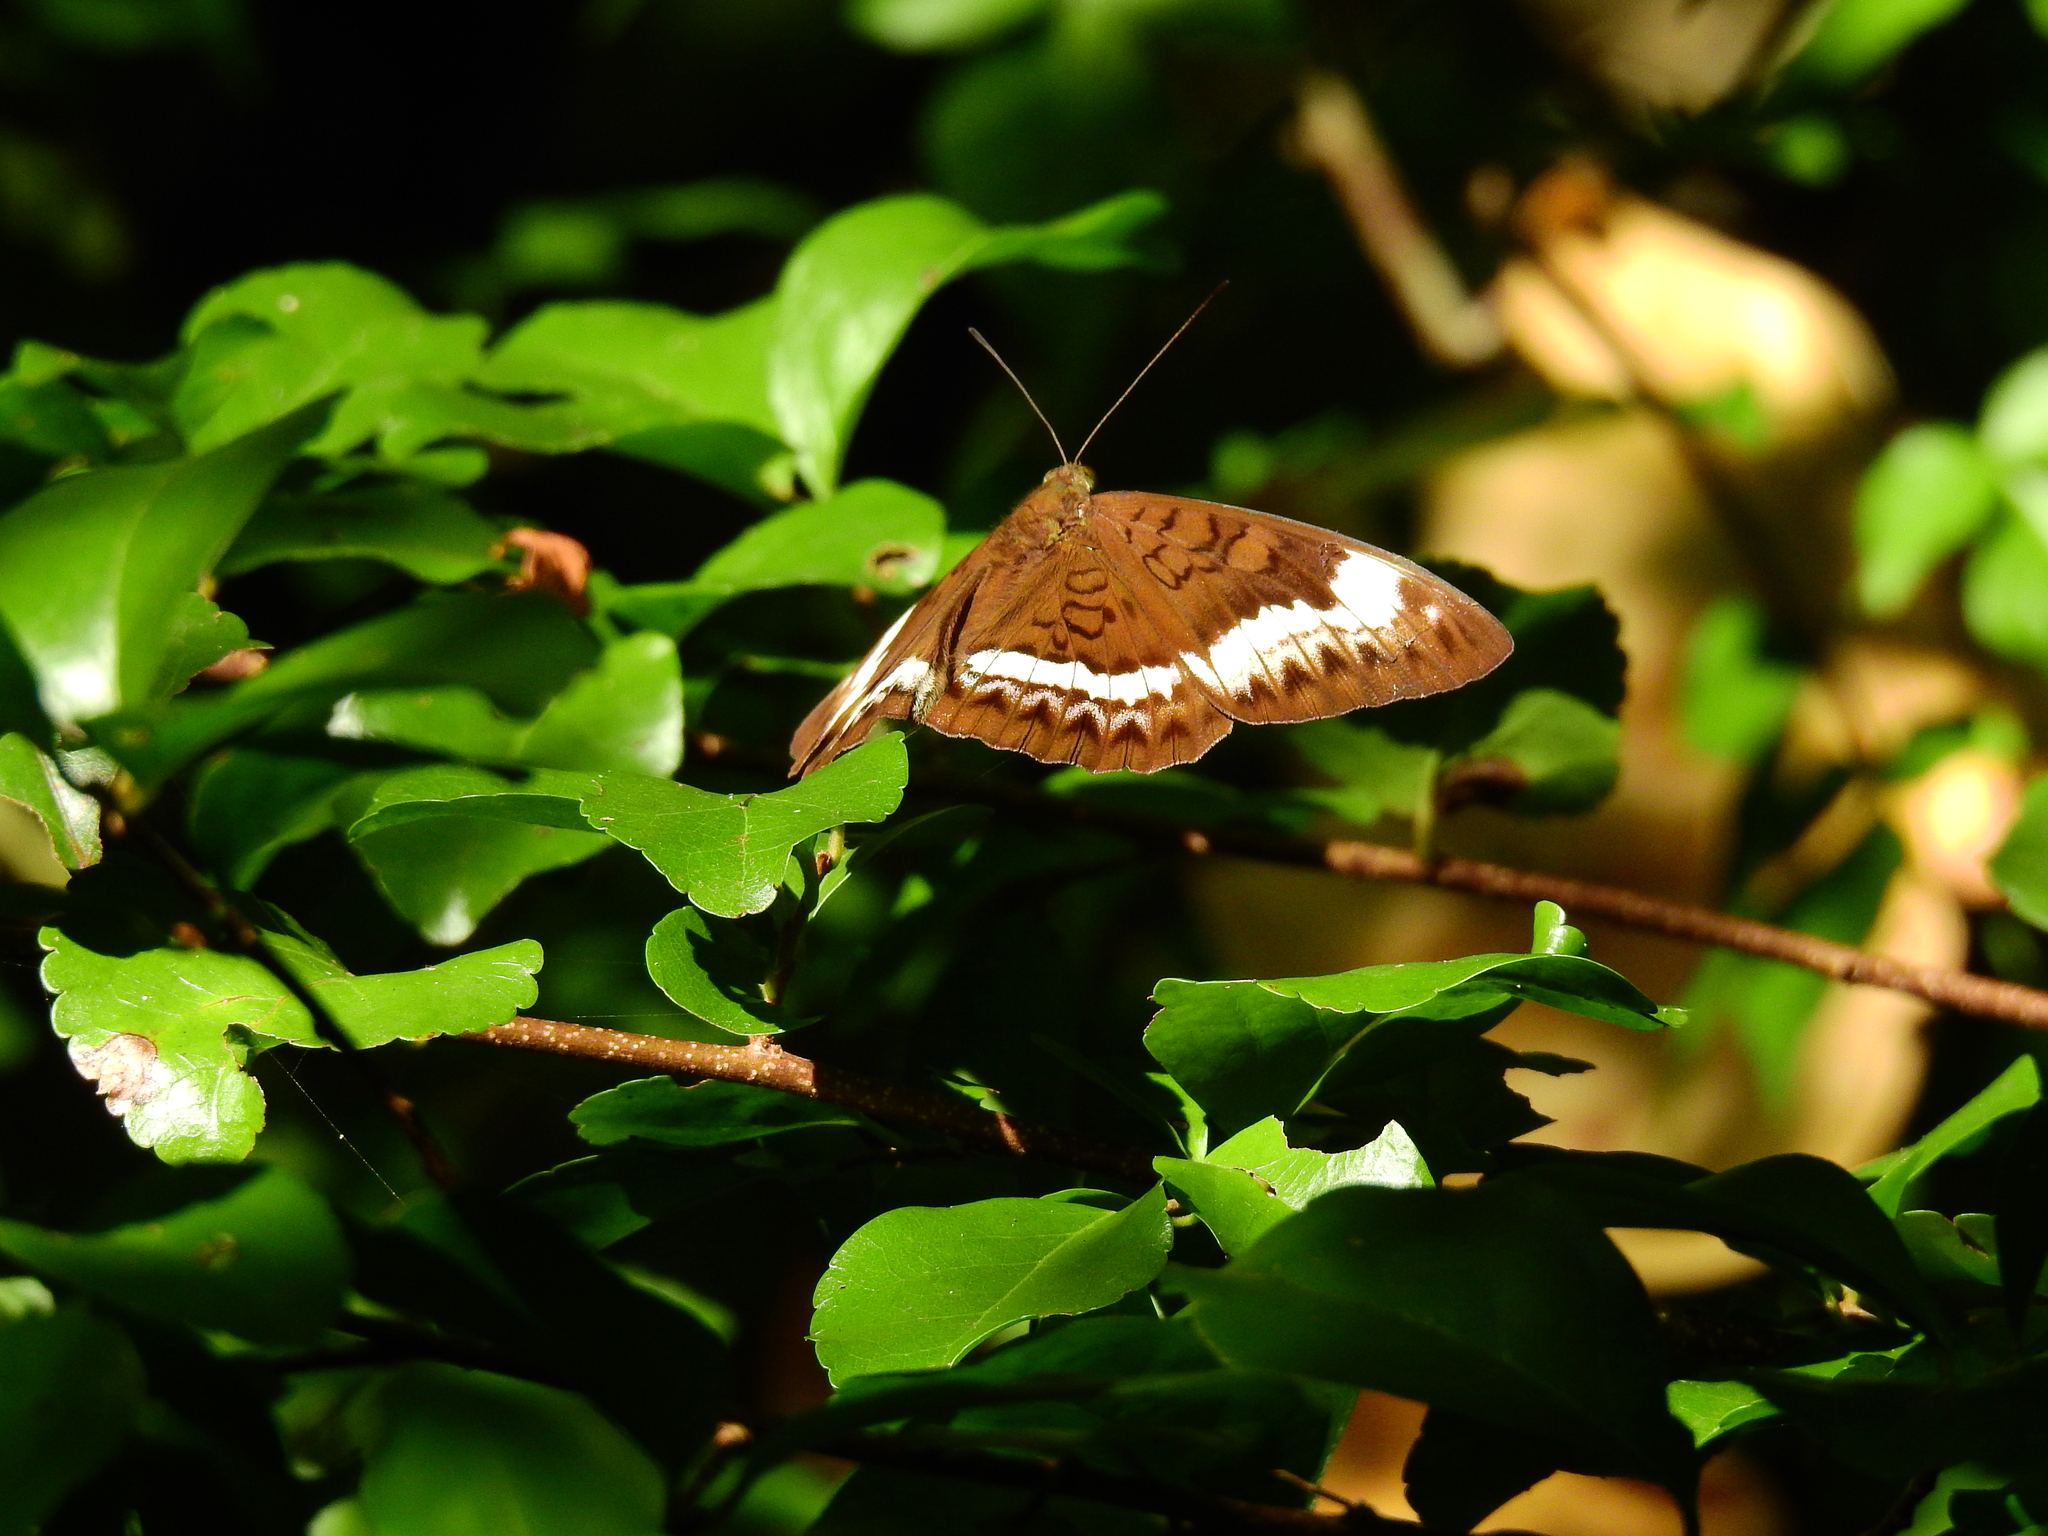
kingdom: Animalia
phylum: Arthropoda
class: Insecta
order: Lepidoptera
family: Nymphalidae
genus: Tanaecia
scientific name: Tanaecia cibaritis
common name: Andaman viscount
